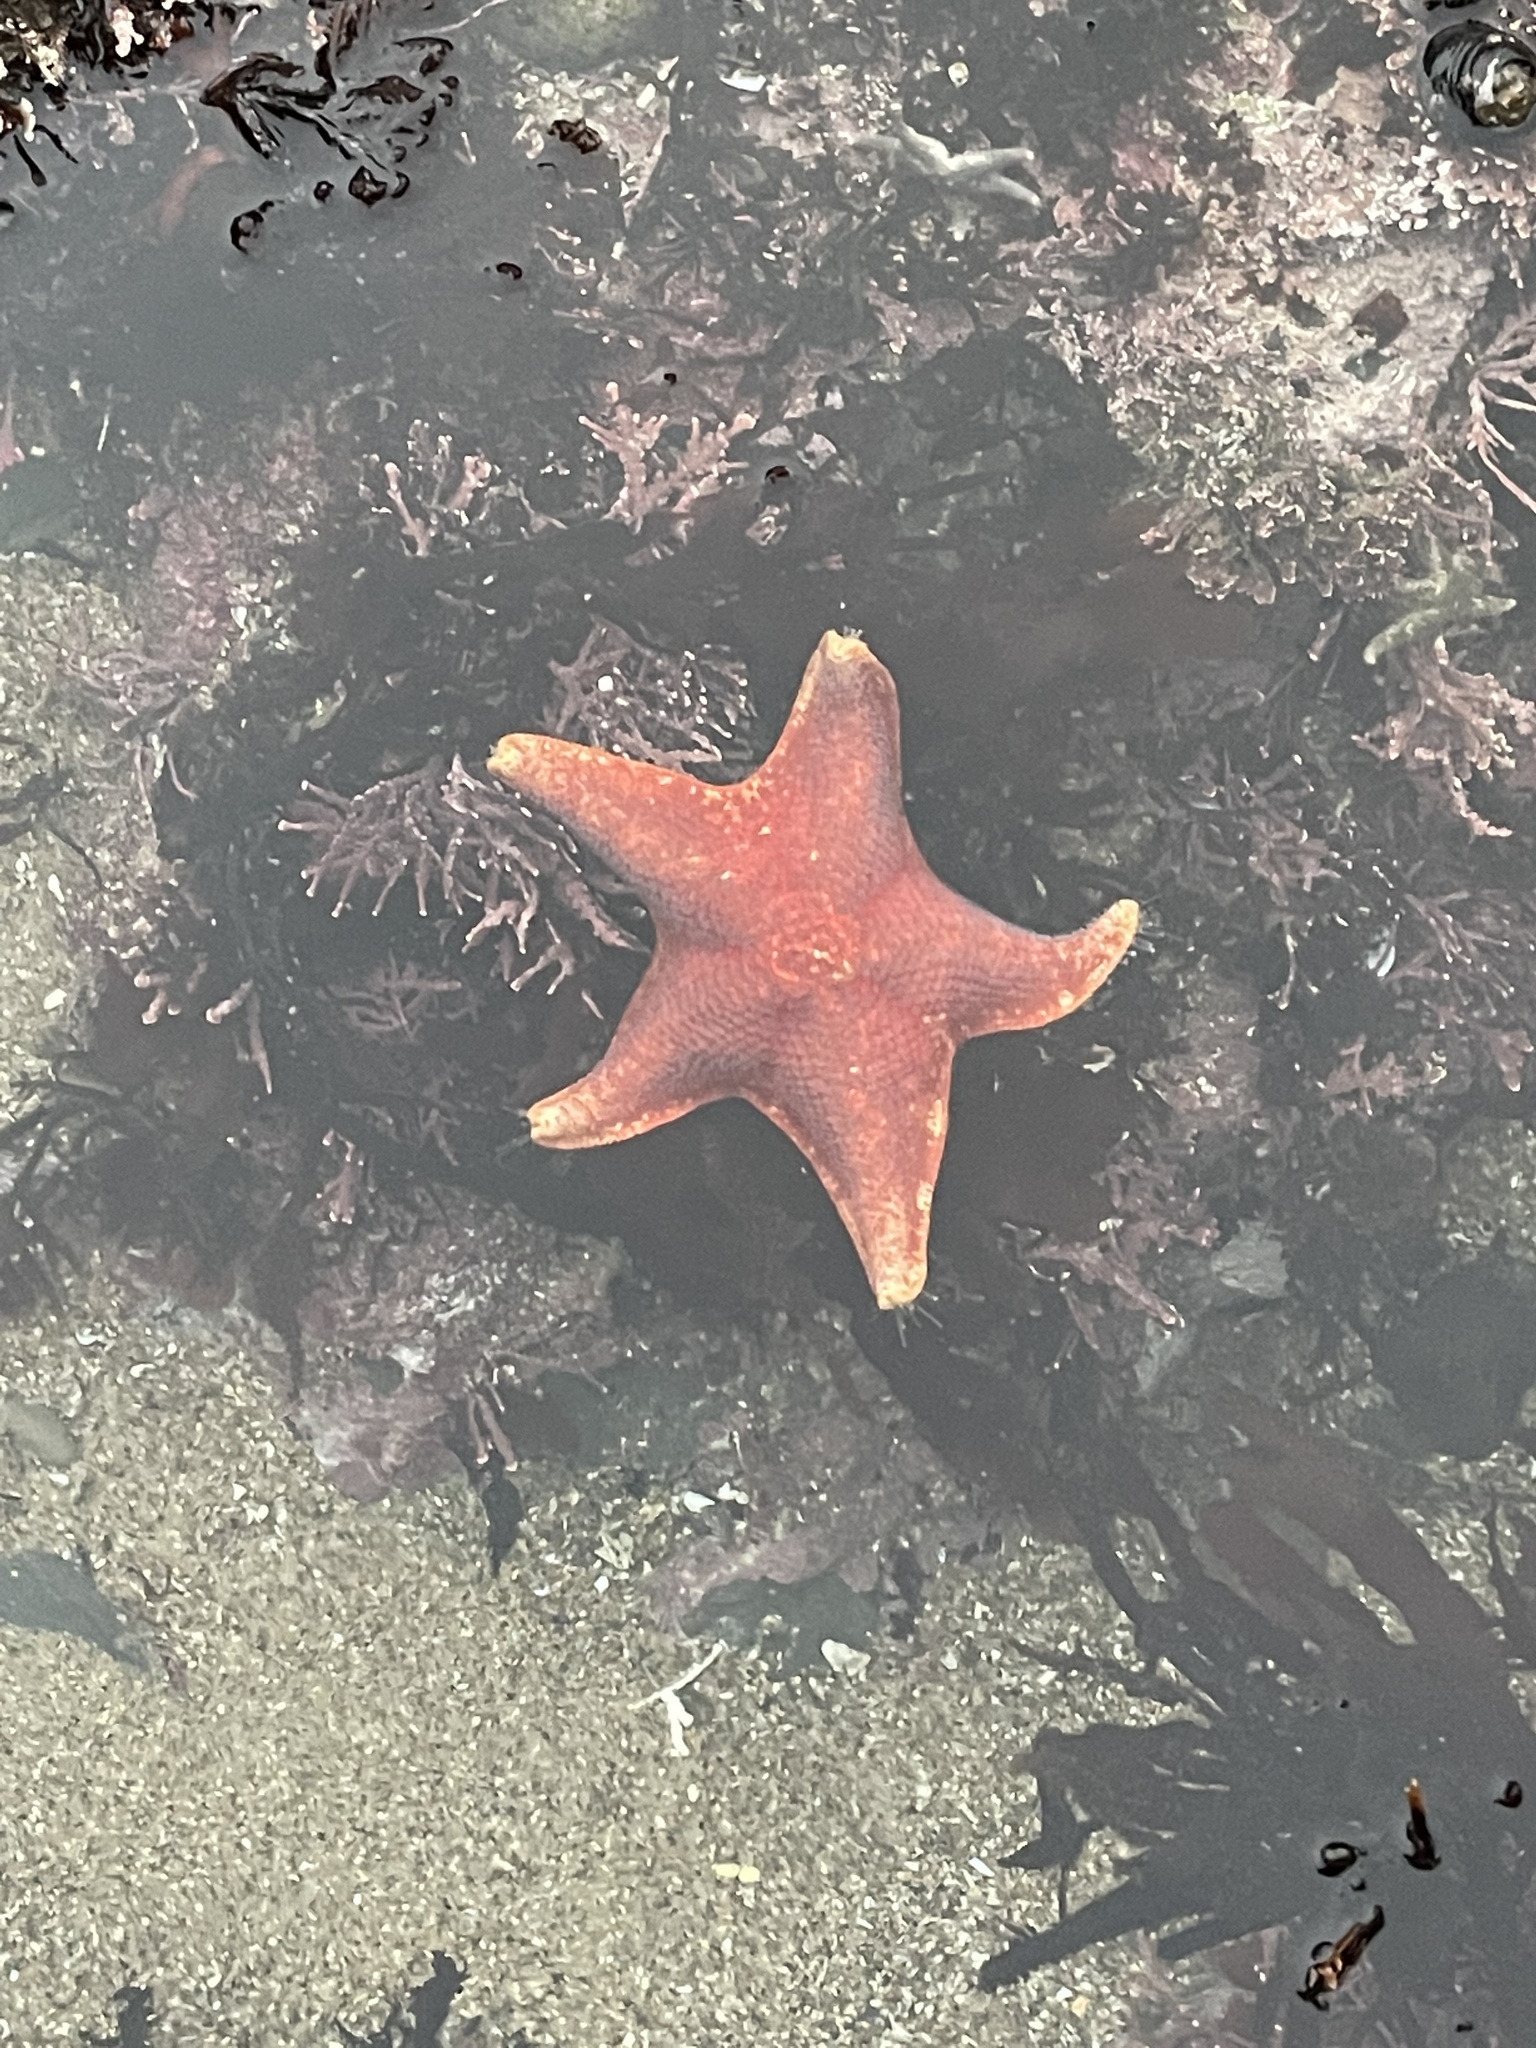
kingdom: Animalia
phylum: Echinodermata
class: Asteroidea
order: Valvatida
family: Asterinidae
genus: Patiria
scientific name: Patiria miniata
